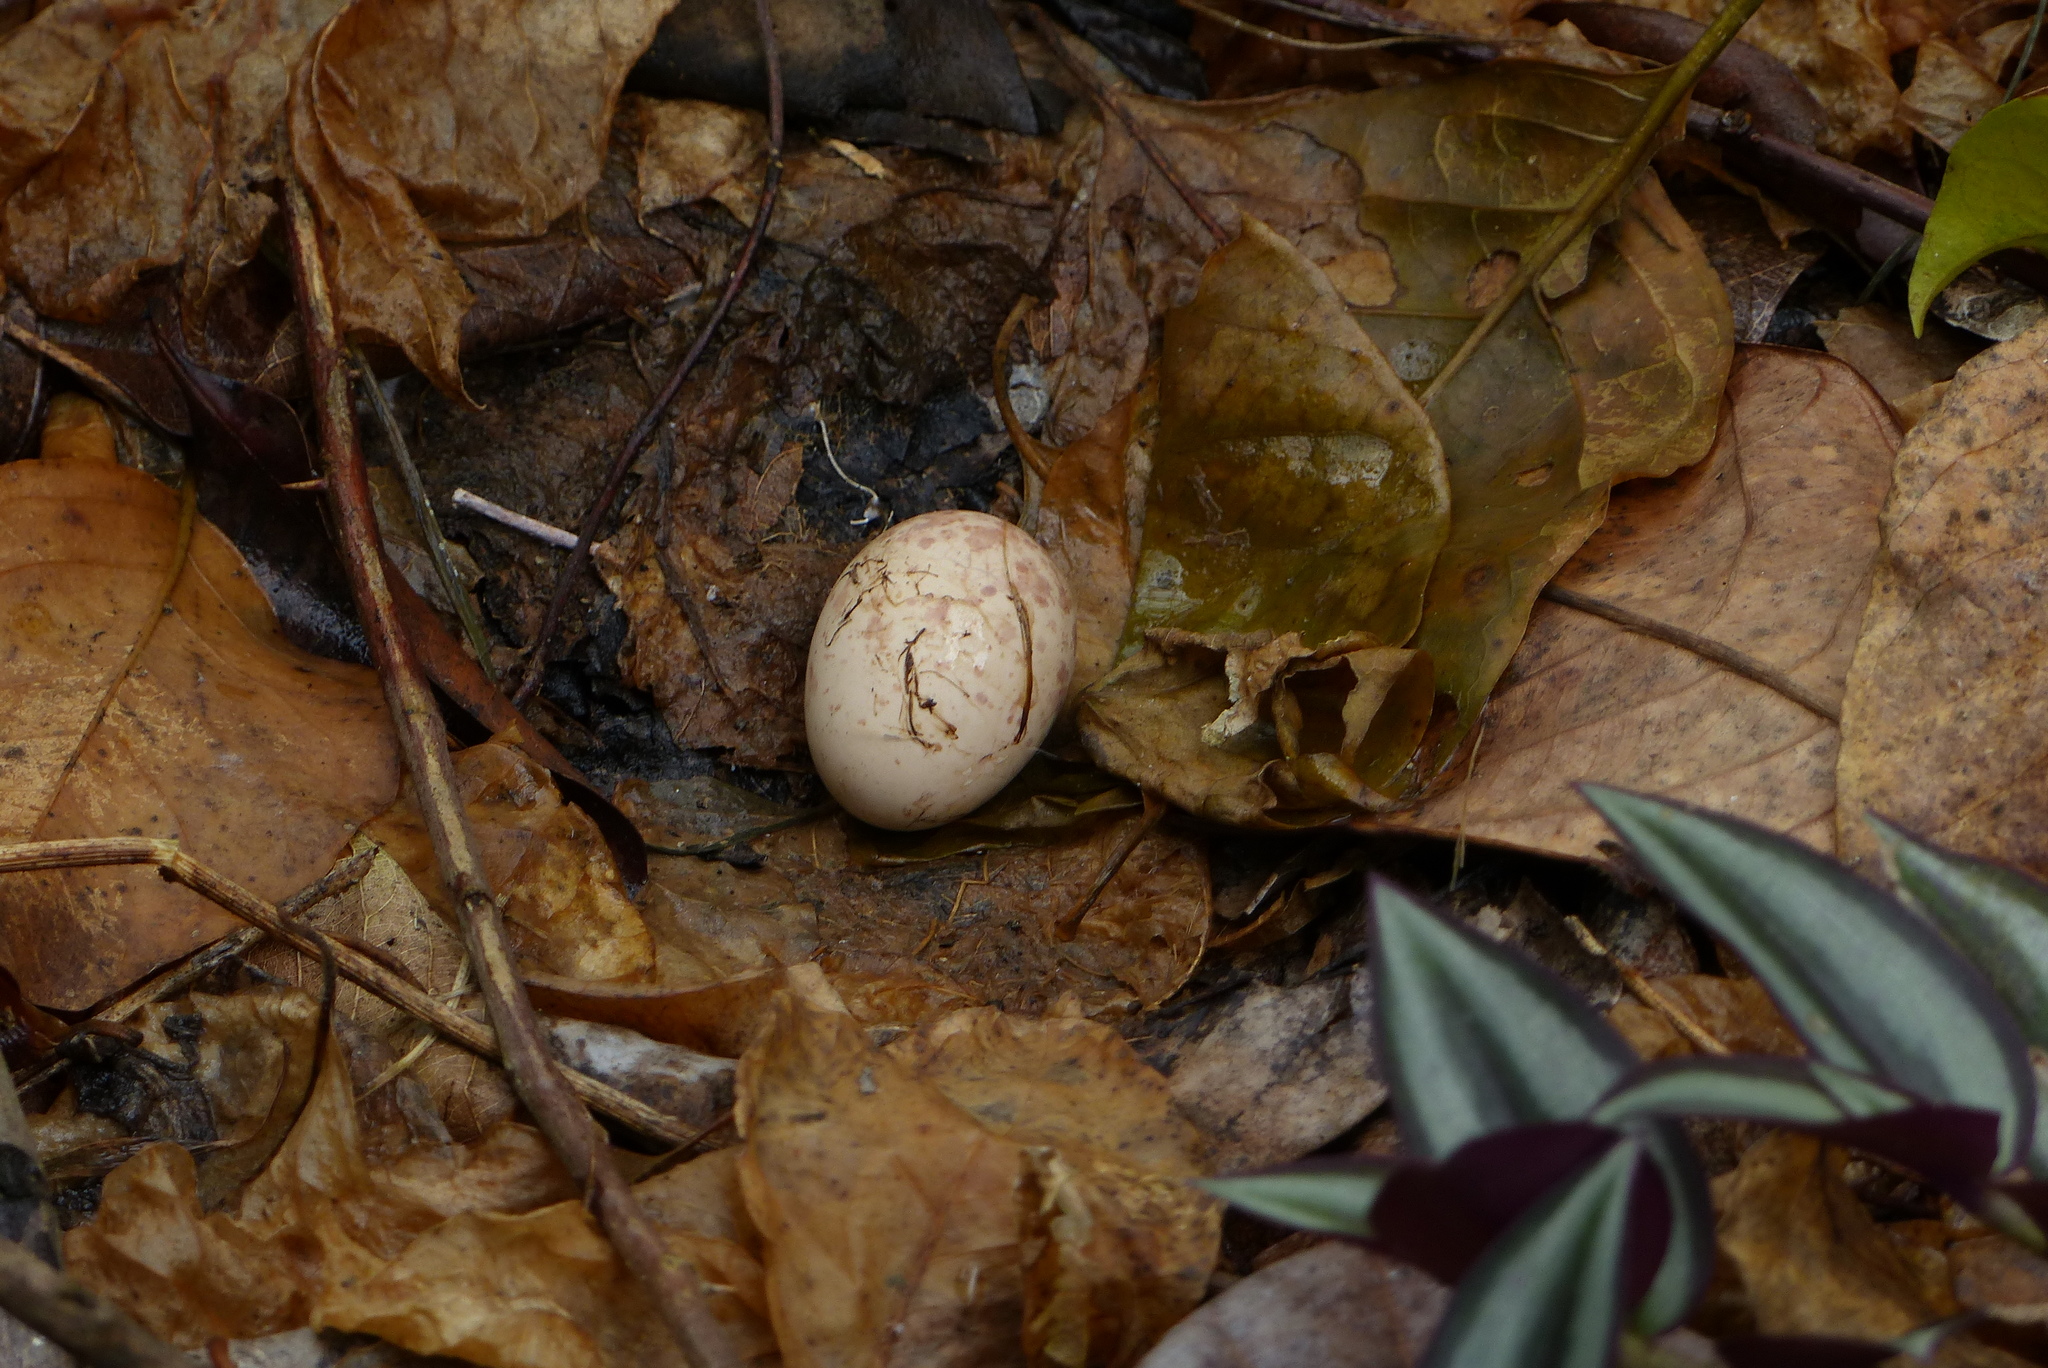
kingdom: Animalia
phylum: Chordata
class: Aves
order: Caprimulgiformes
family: Caprimulgidae
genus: Nyctidromus
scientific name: Nyctidromus albicollis
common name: Pauraque
